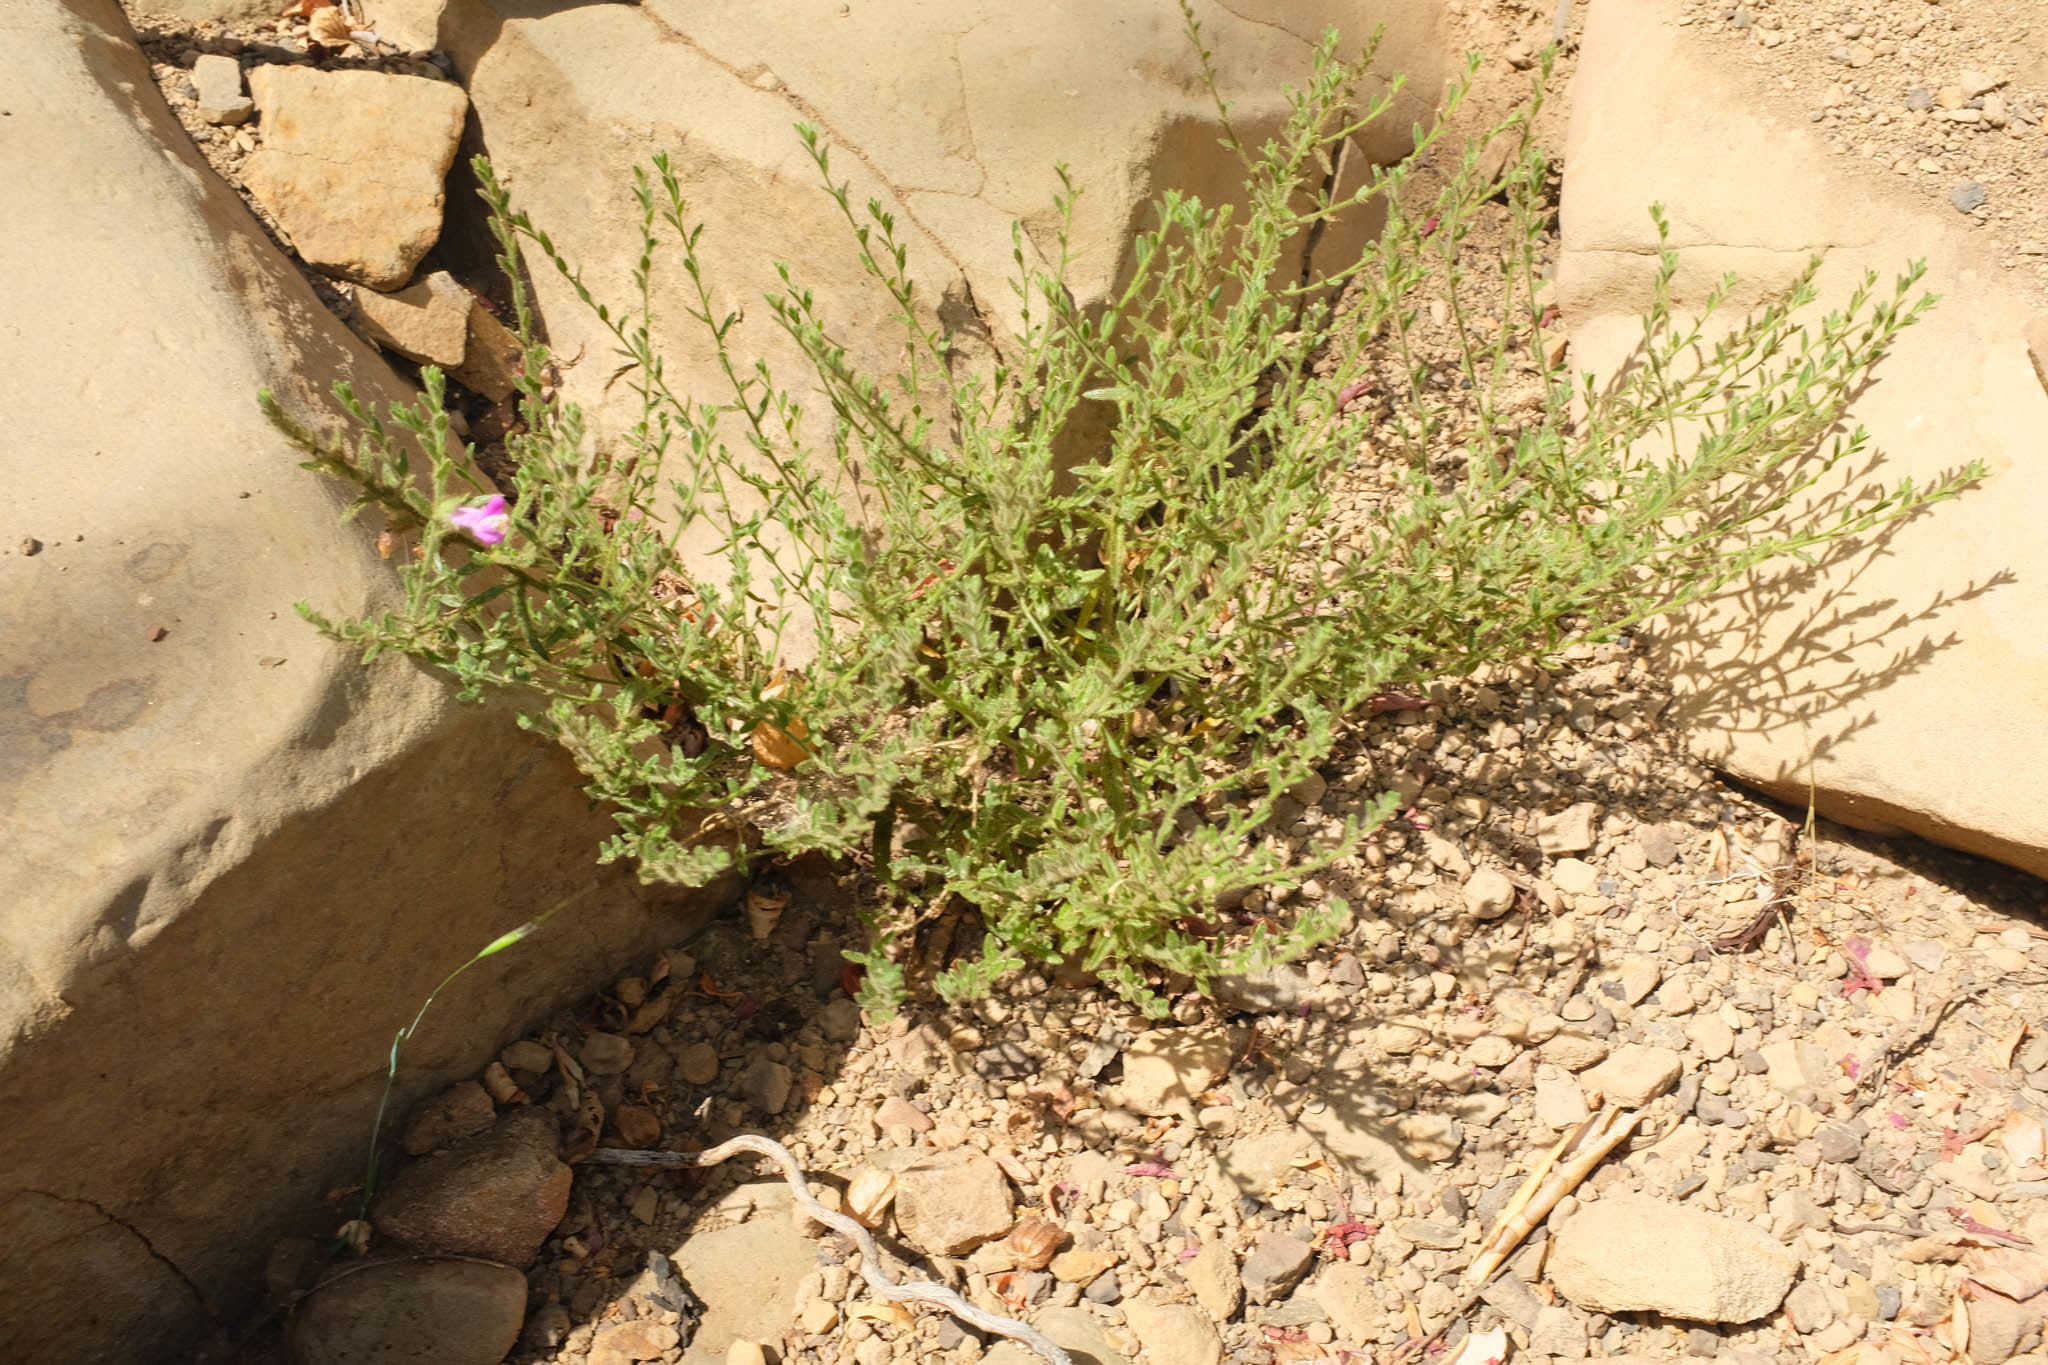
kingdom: Plantae
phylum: Tracheophyta
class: Magnoliopsida
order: Lamiales
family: Plantaginaceae
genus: Sairocarpus
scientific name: Sairocarpus multiflorus
